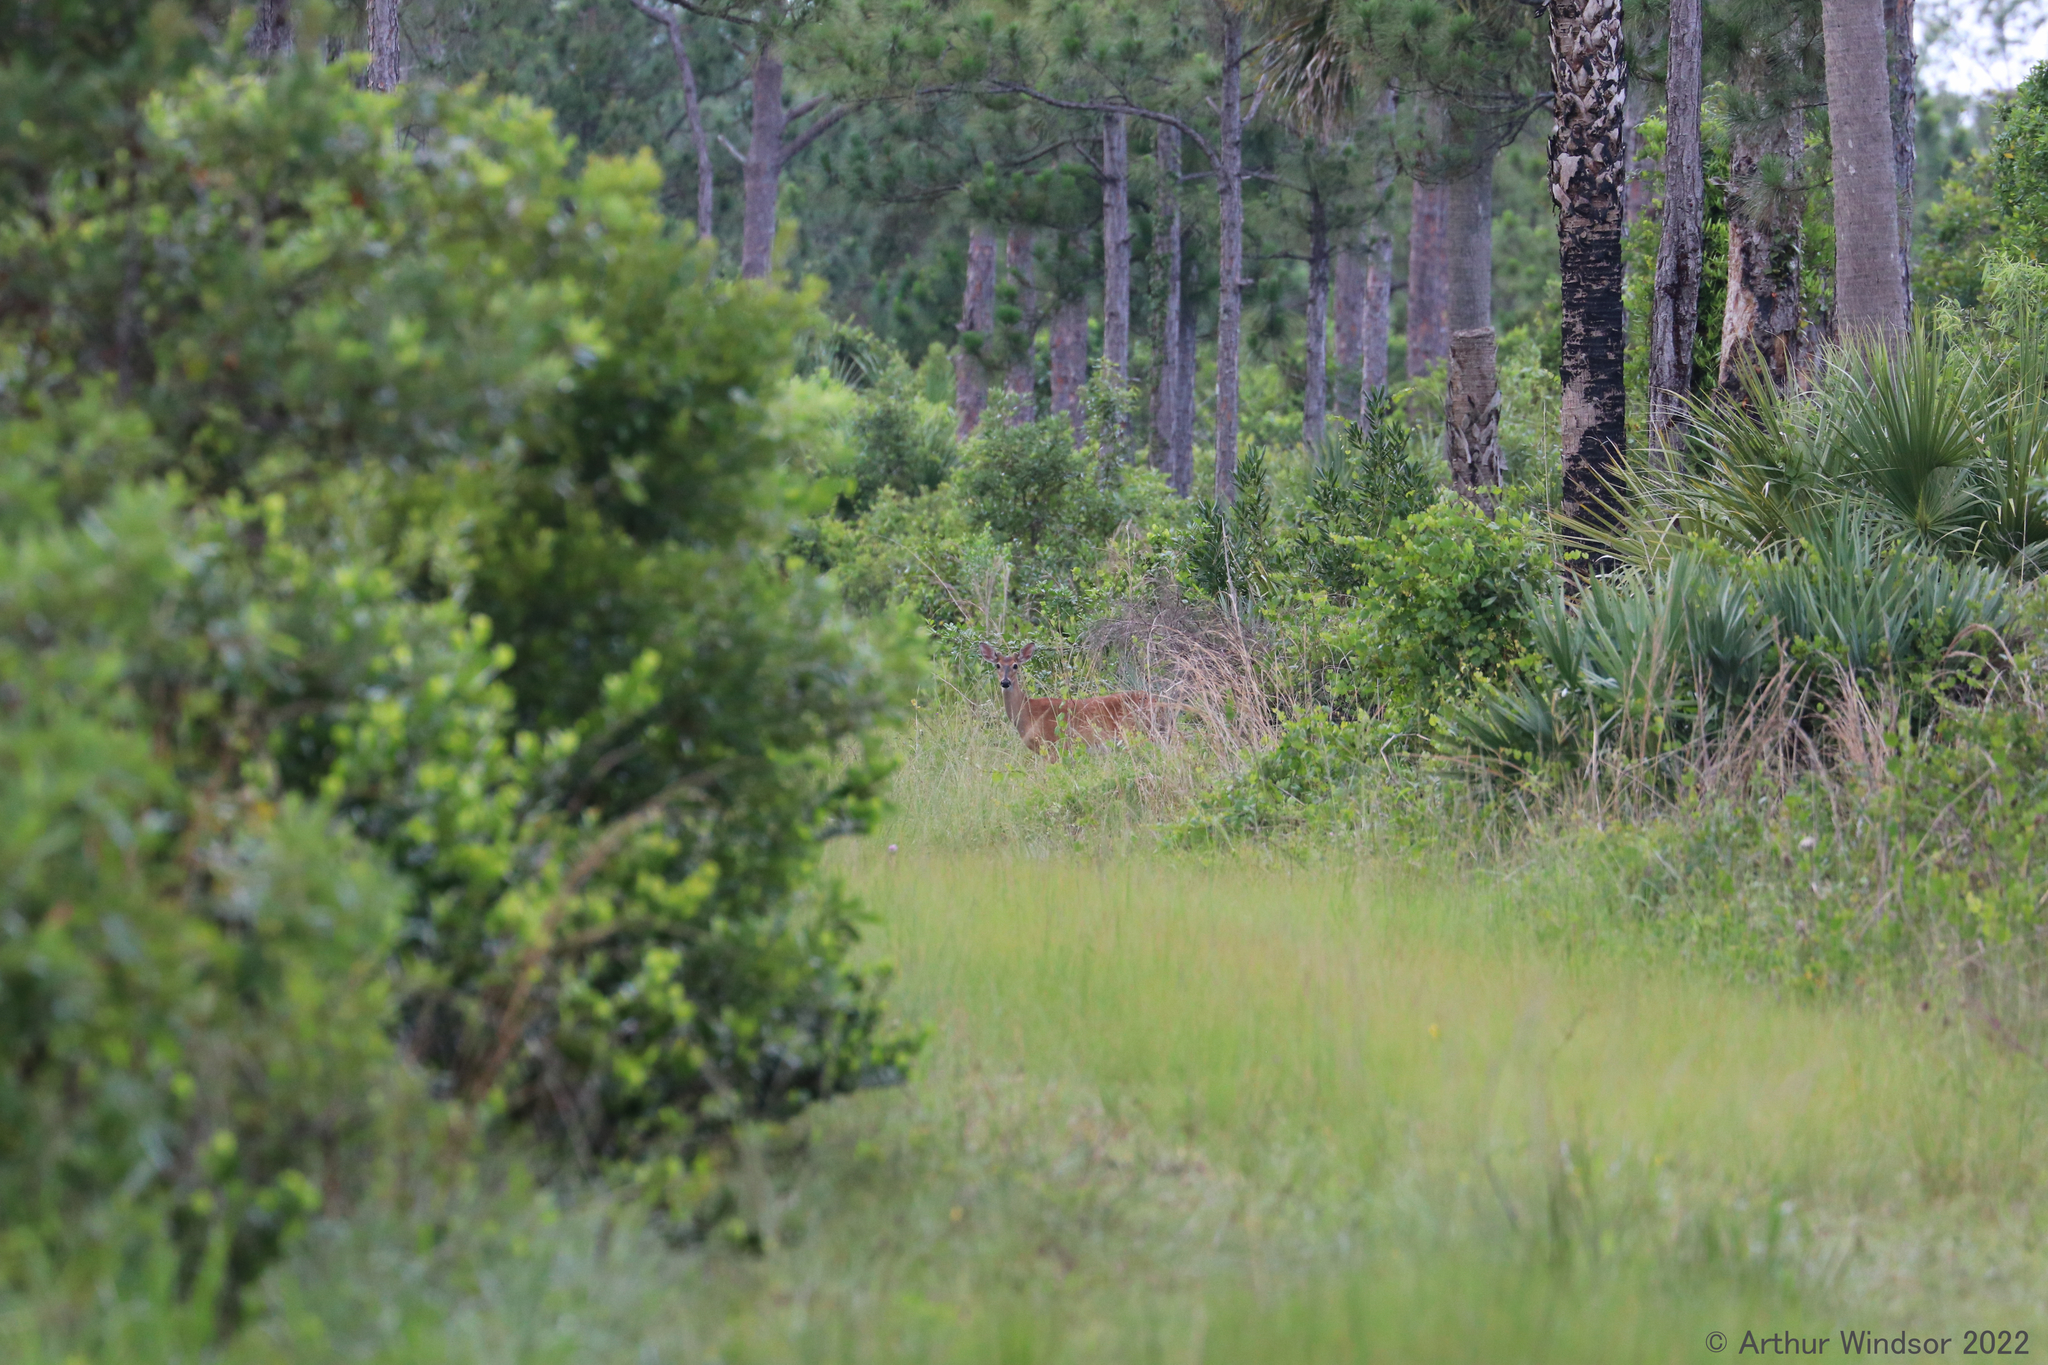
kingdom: Animalia
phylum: Chordata
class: Mammalia
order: Artiodactyla
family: Cervidae
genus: Odocoileus
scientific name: Odocoileus virginianus
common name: White-tailed deer
